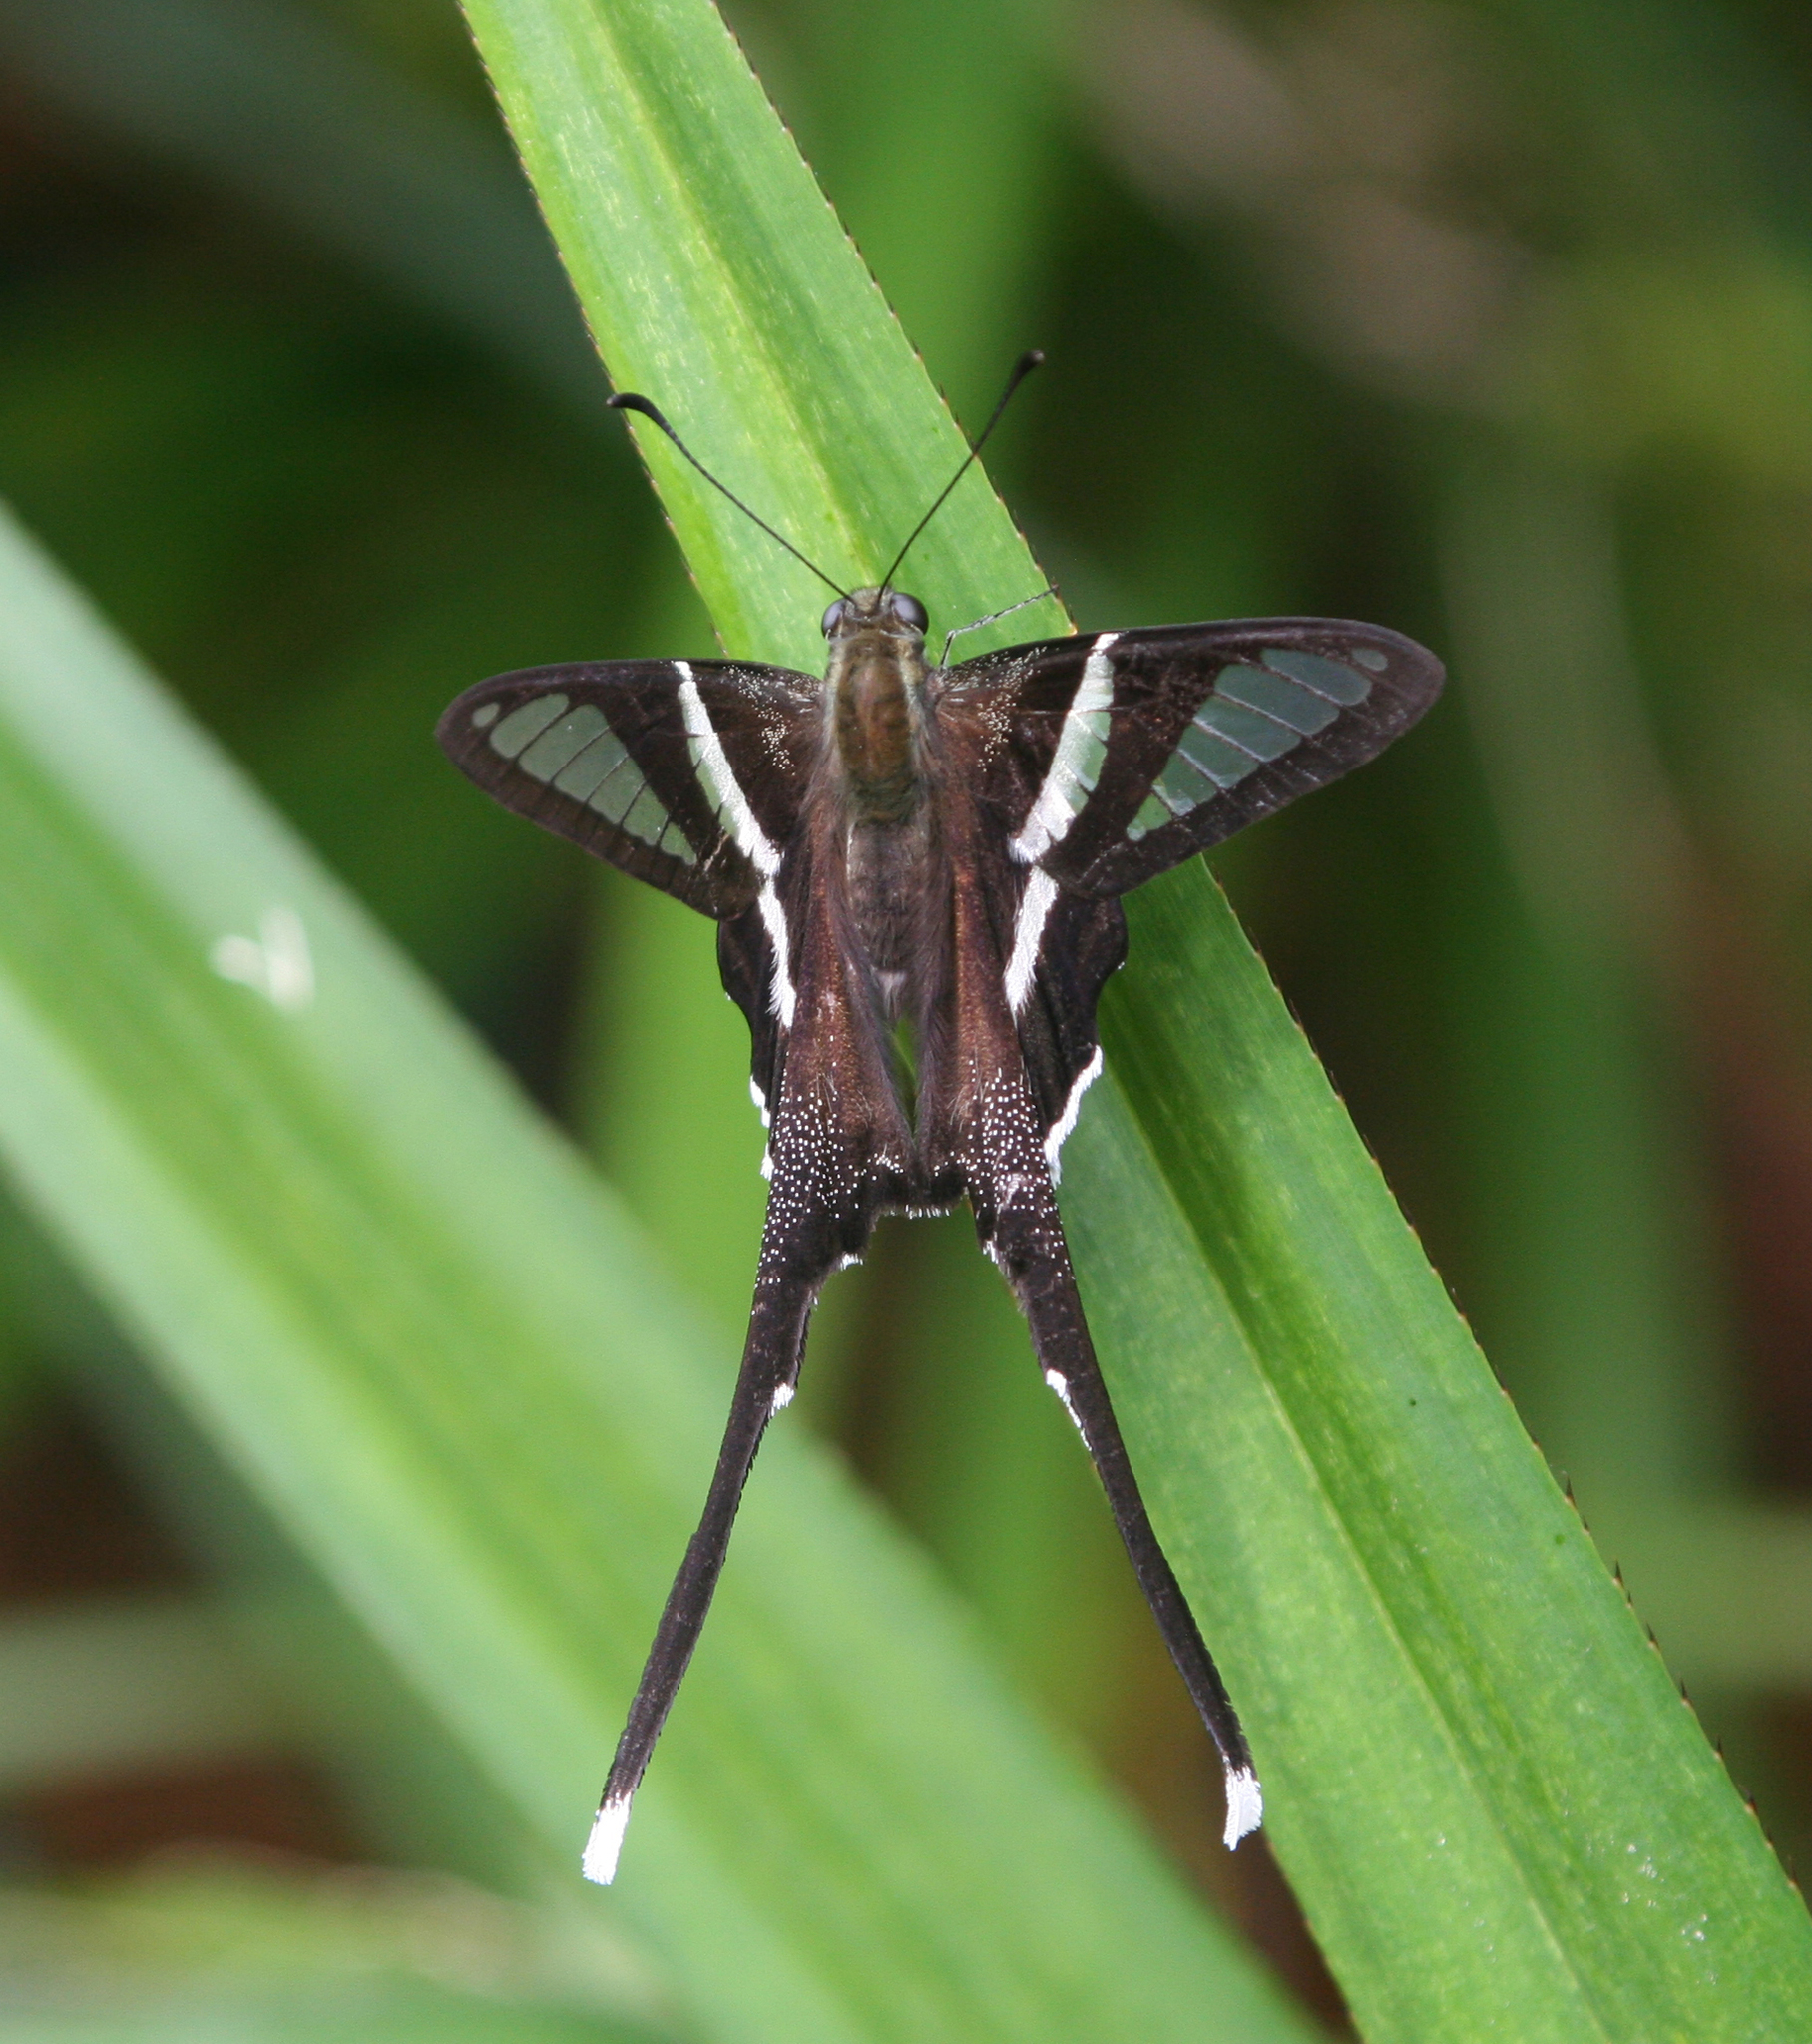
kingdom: Animalia
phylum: Arthropoda
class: Insecta
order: Lepidoptera
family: Papilionidae
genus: Lamproptera
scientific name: Lamproptera curius
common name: White dragontail
